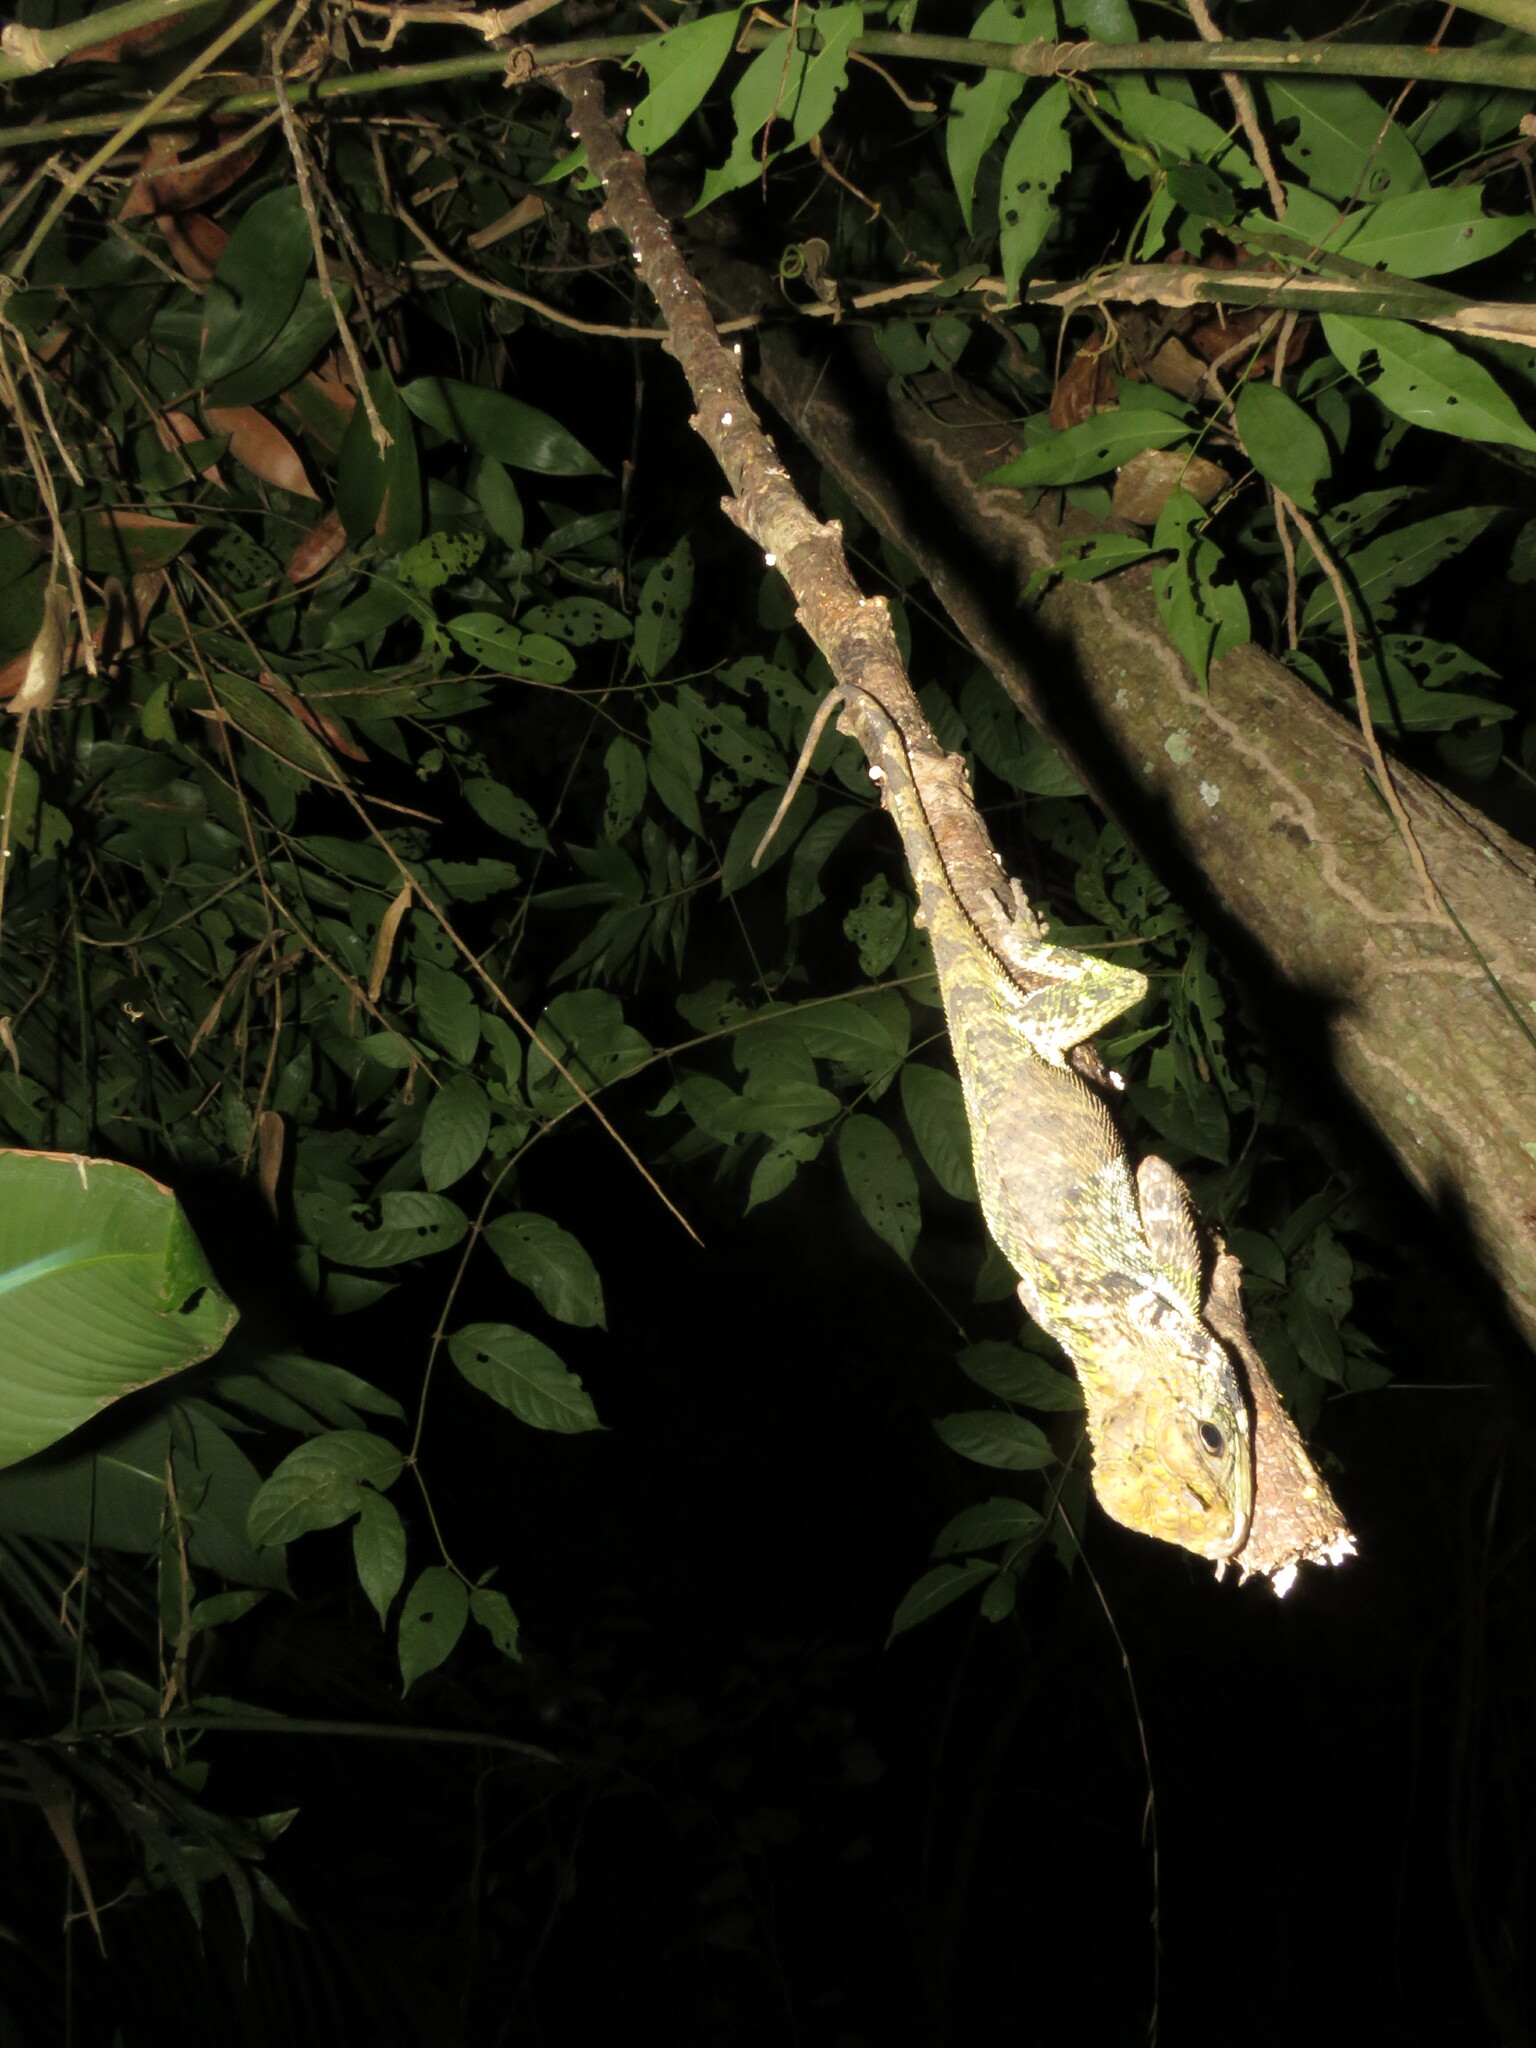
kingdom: Animalia
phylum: Chordata
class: Squamata
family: Tropiduridae
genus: Plica
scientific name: Plica umbra
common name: Harlequin racerunner
